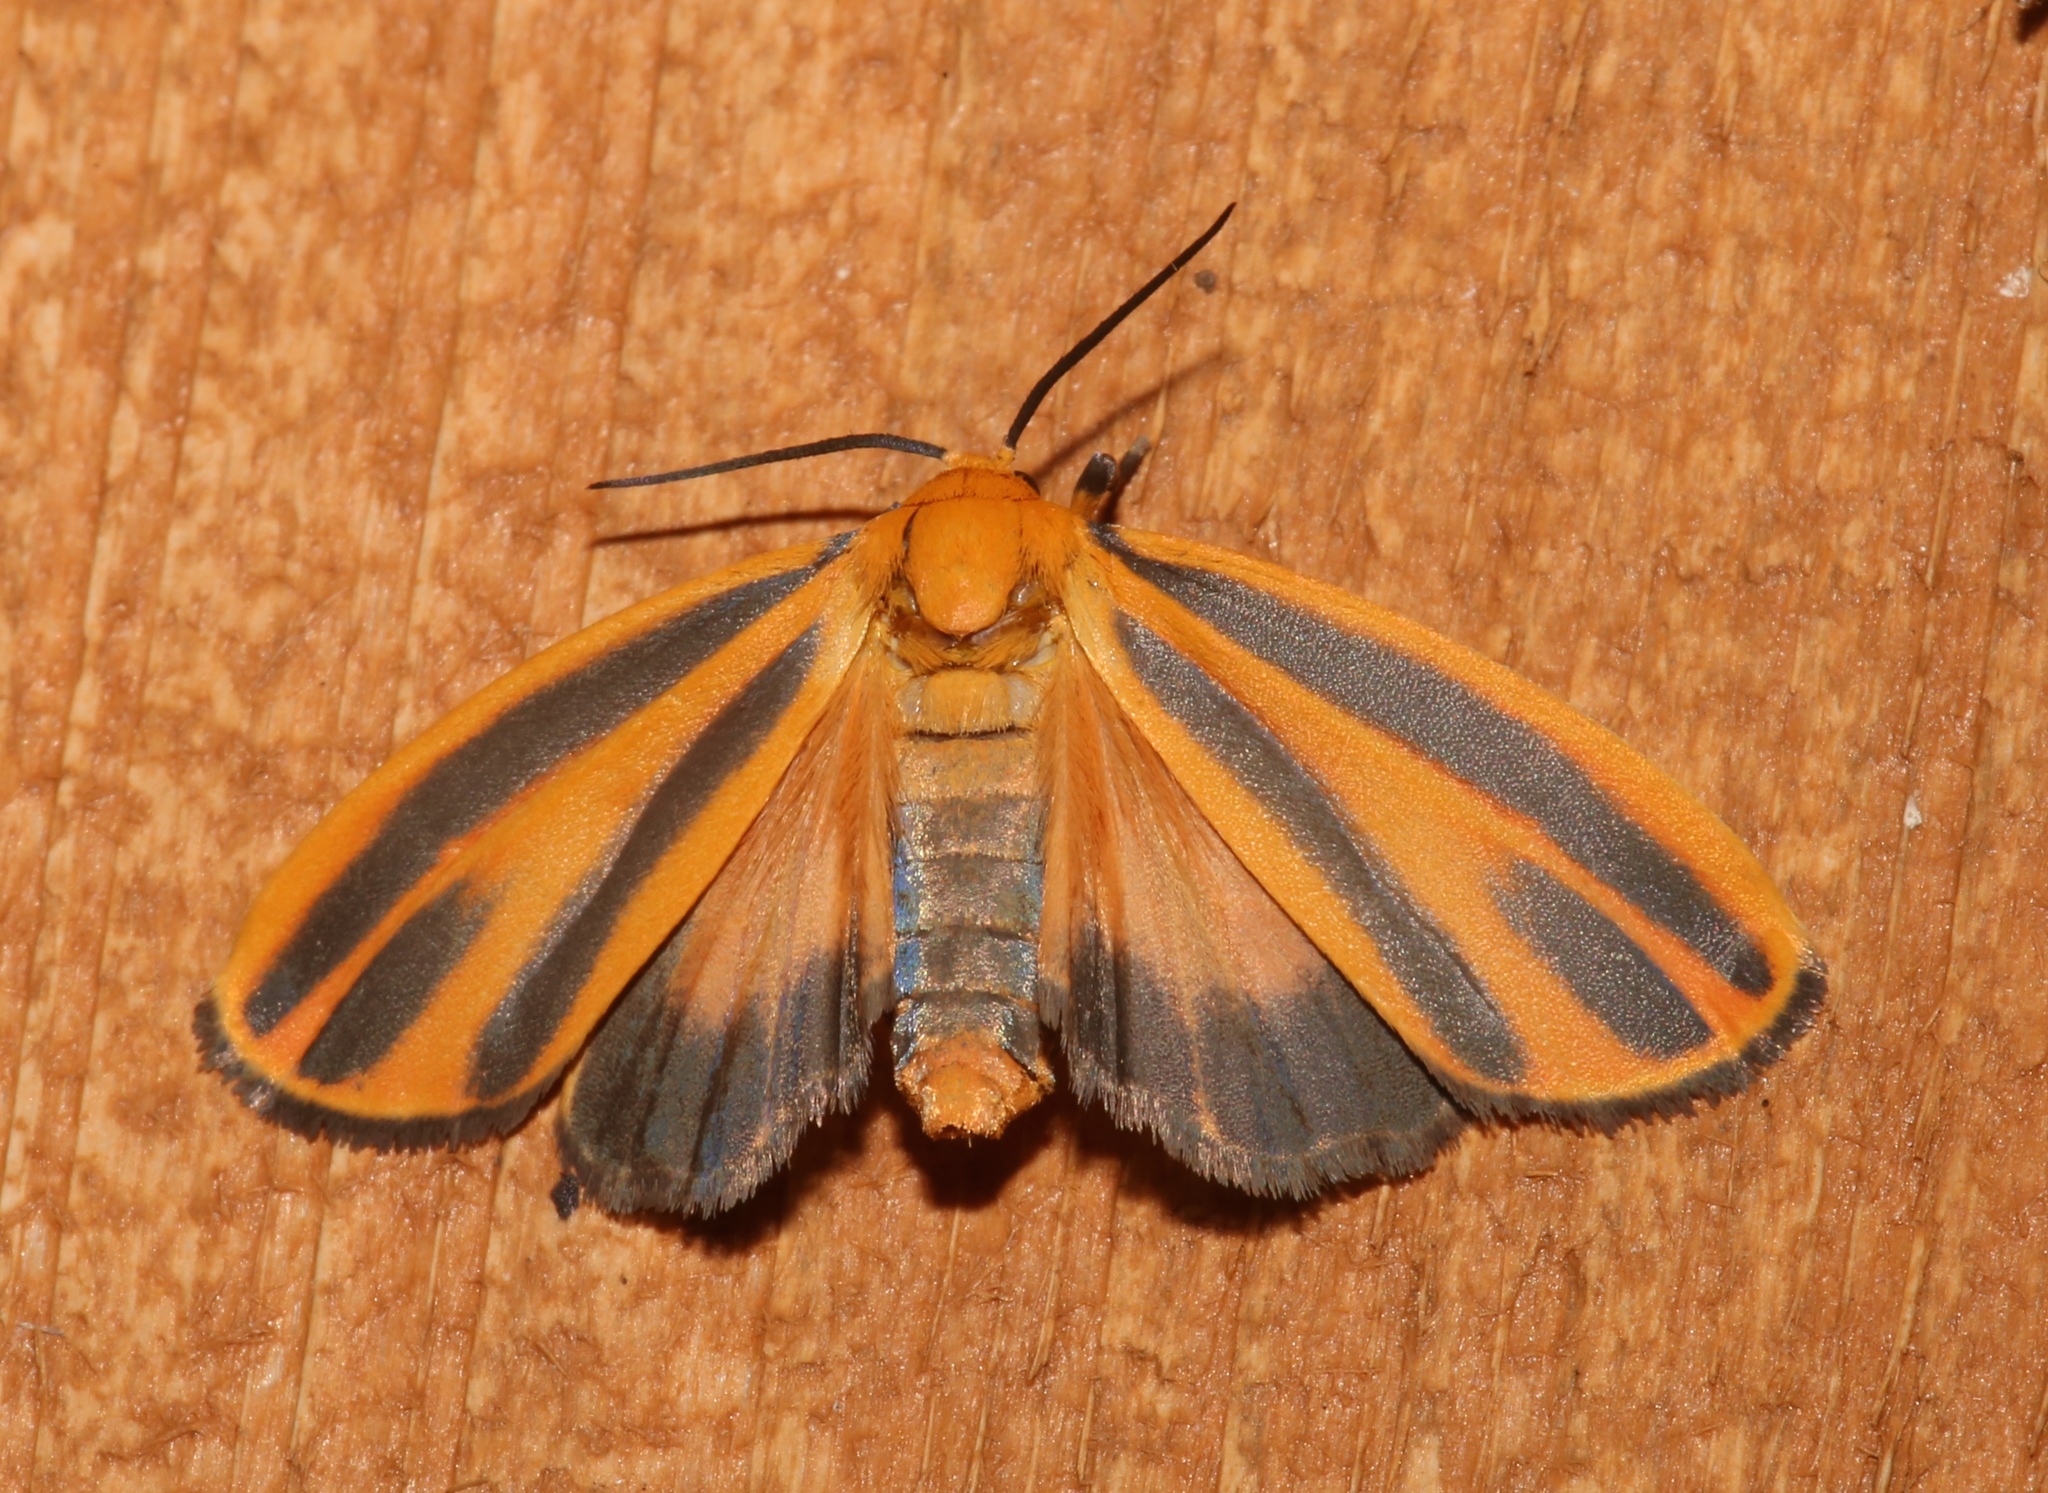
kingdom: Animalia
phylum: Arthropoda
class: Insecta
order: Lepidoptera
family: Erebidae
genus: Hypoprepia
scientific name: Hypoprepia fucosa
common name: Painted lichen moth
